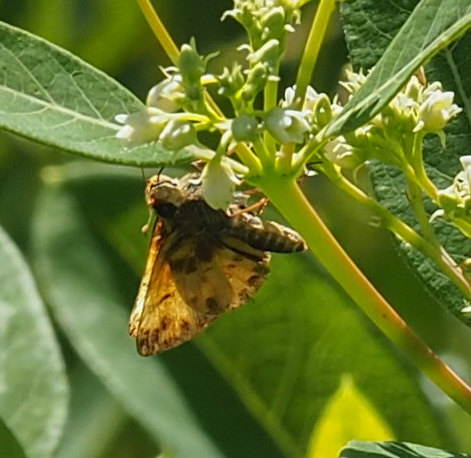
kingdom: Animalia
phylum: Arthropoda
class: Insecta
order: Lepidoptera
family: Hesperiidae
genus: Lon
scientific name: Lon zabulon
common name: Zabulon skipper
